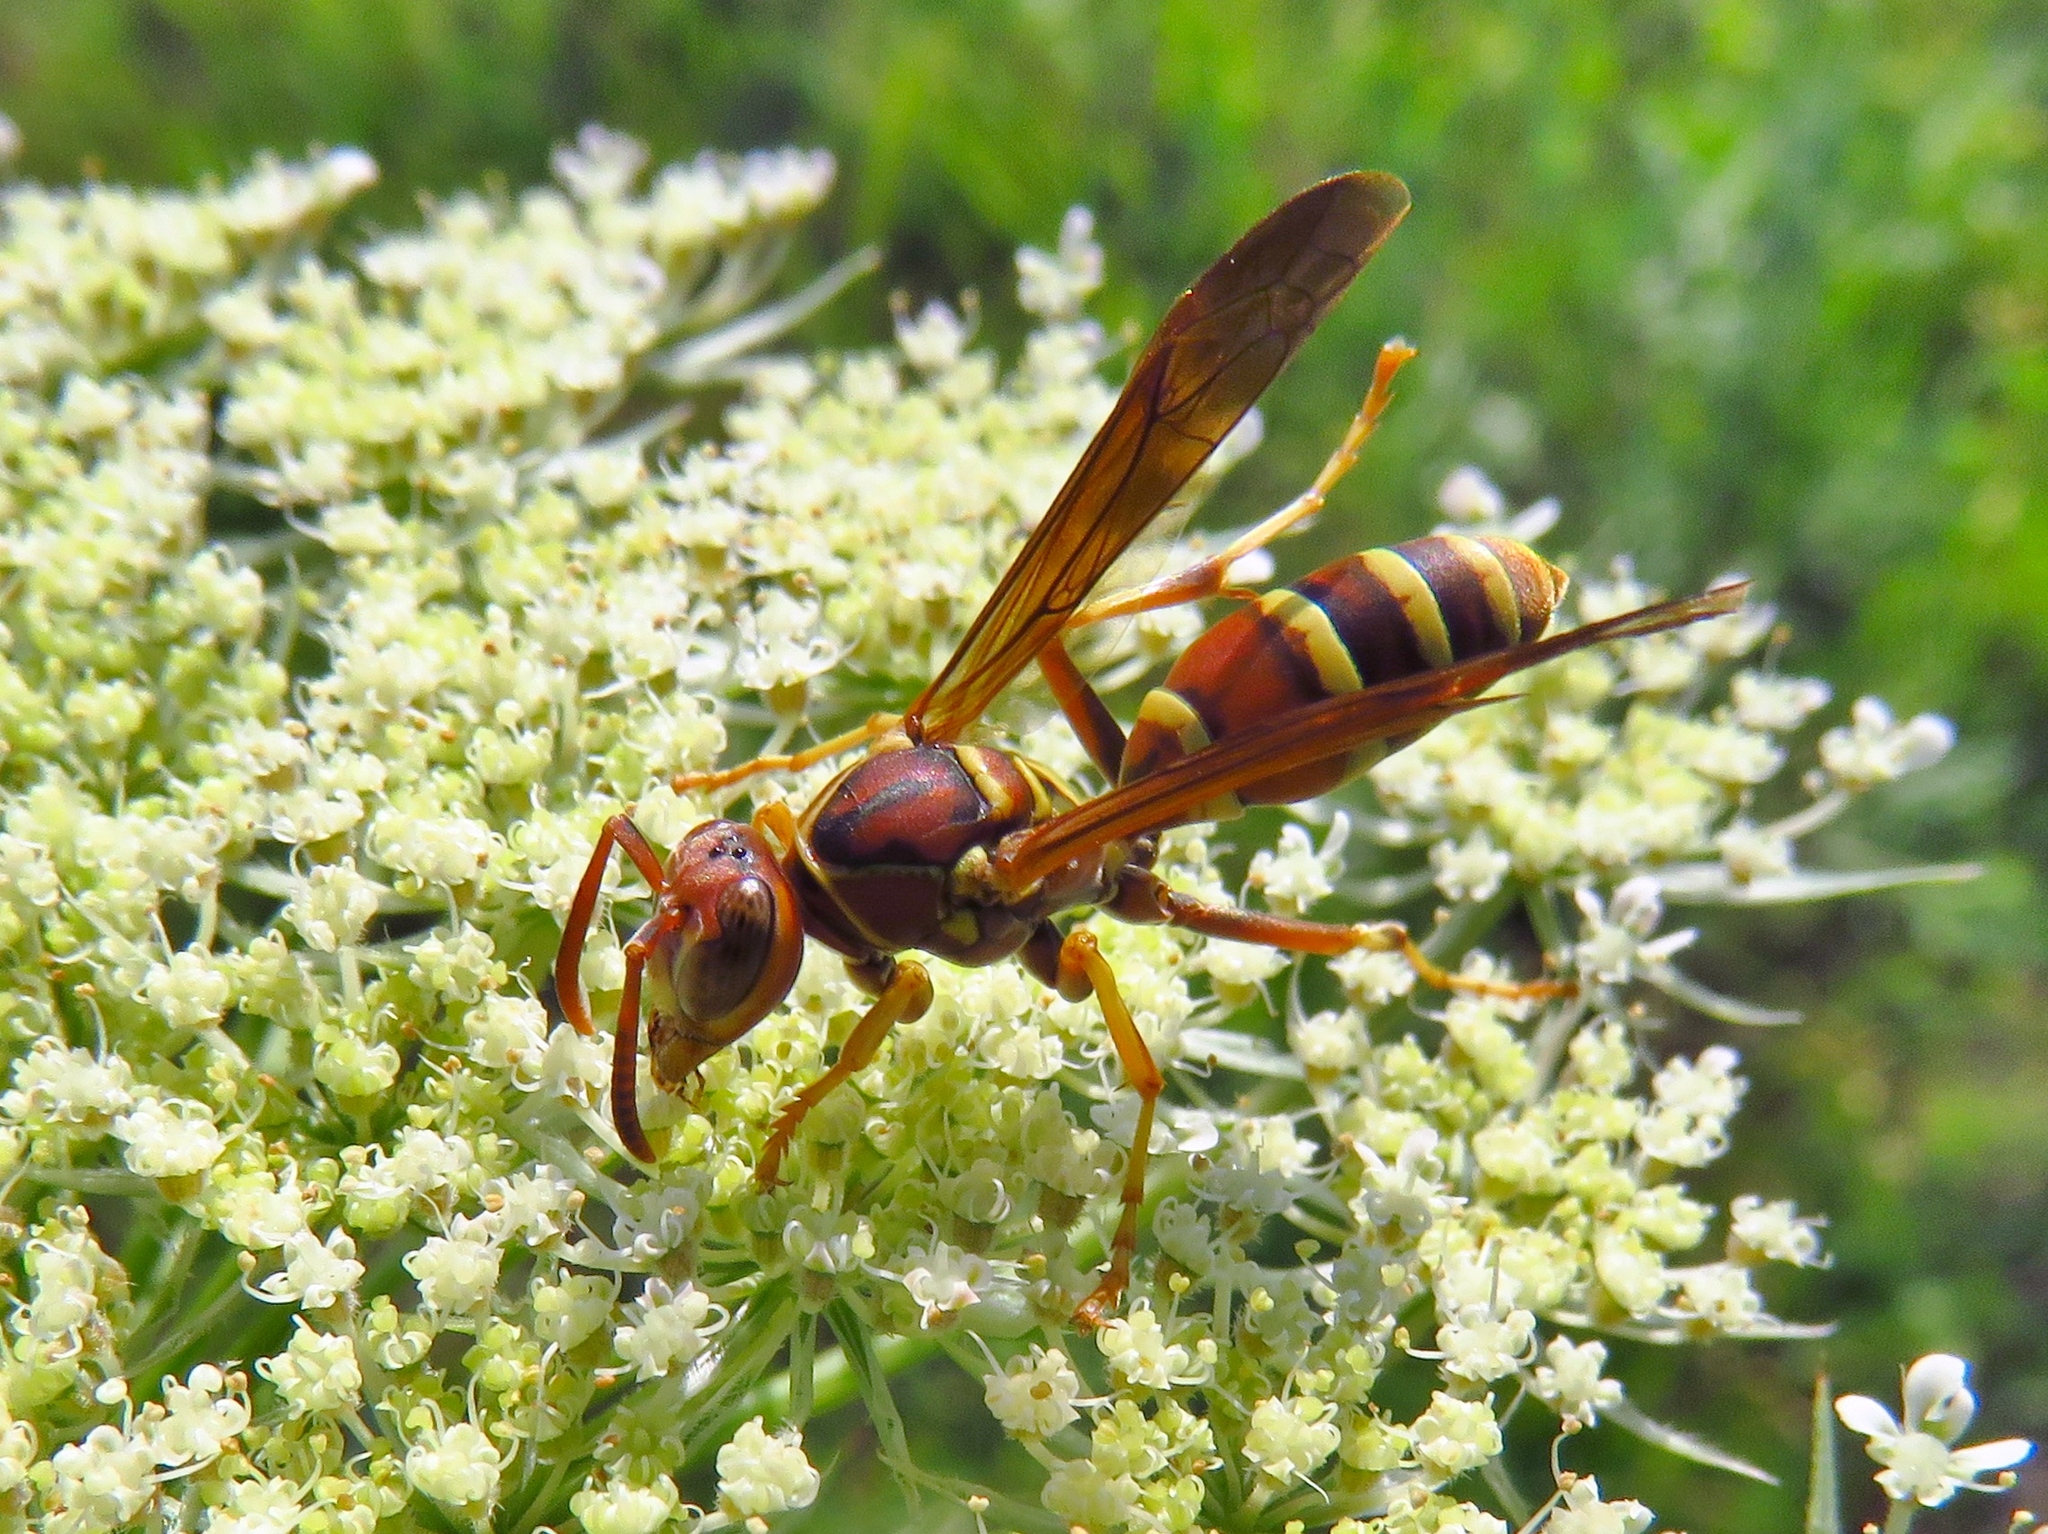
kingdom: Animalia
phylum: Arthropoda
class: Insecta
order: Hymenoptera
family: Eumenidae
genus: Polistes
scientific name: Polistes dorsalis
